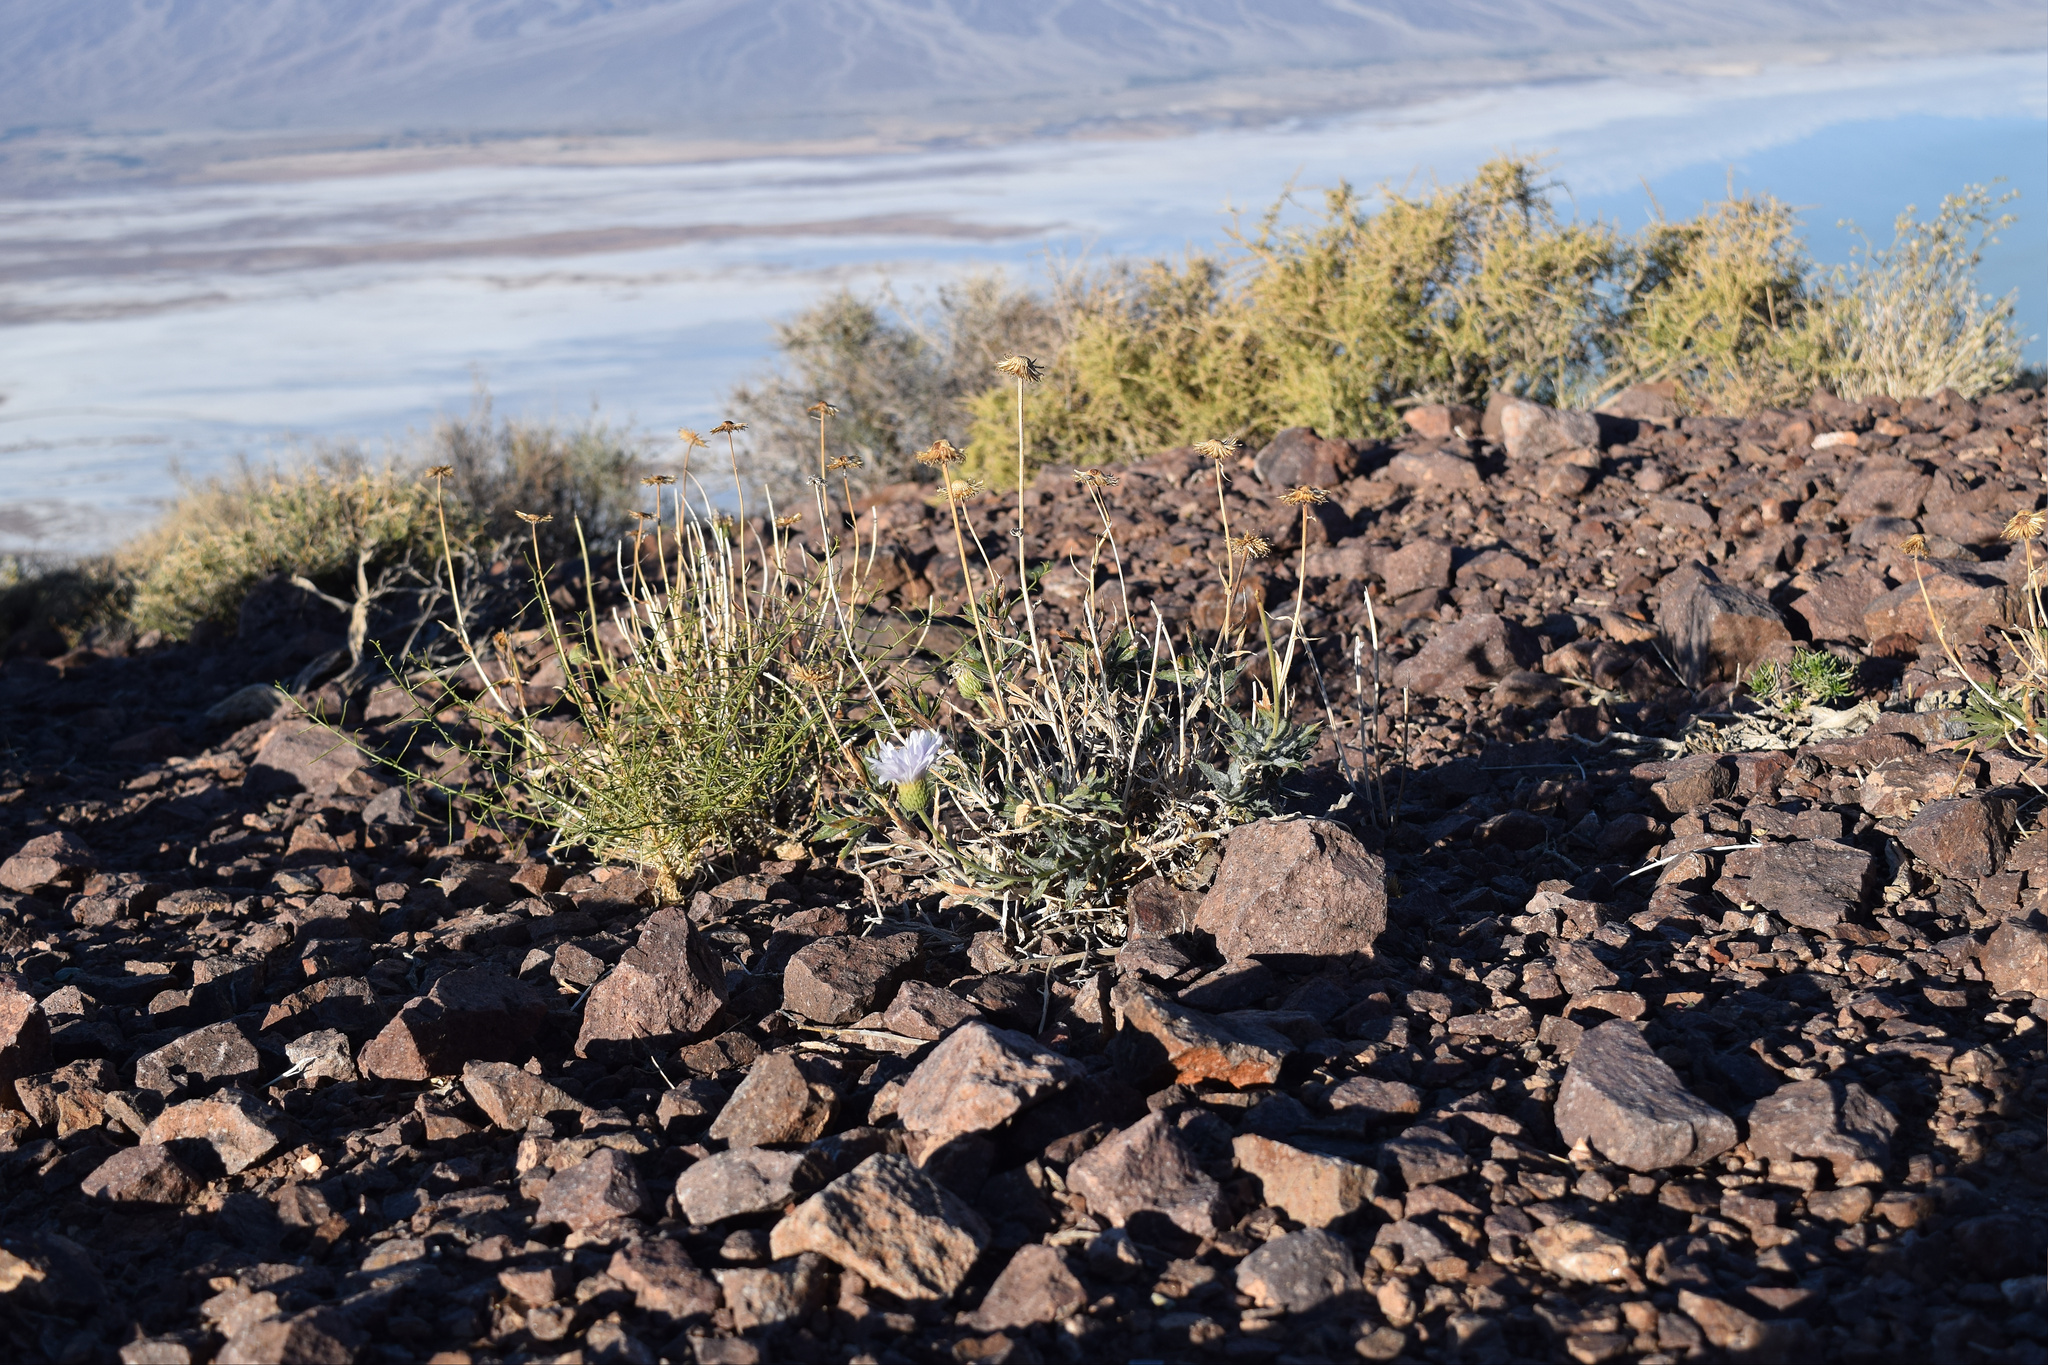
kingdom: Plantae
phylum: Tracheophyta
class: Magnoliopsida
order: Asterales
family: Asteraceae
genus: Xylorhiza
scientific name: Xylorhiza tortifolia
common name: Hurt-leaf woody-aster
